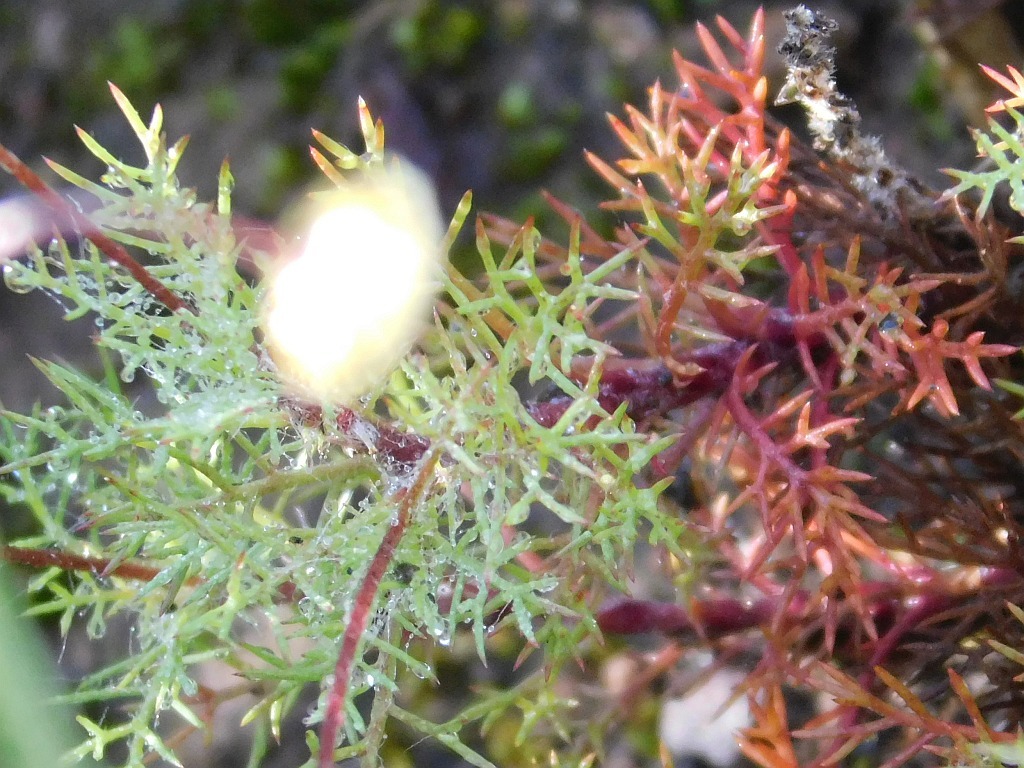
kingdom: Plantae
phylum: Tracheophyta
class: Magnoliopsida
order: Asterales
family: Asteraceae
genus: Cotula
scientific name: Cotula ceniifolia
